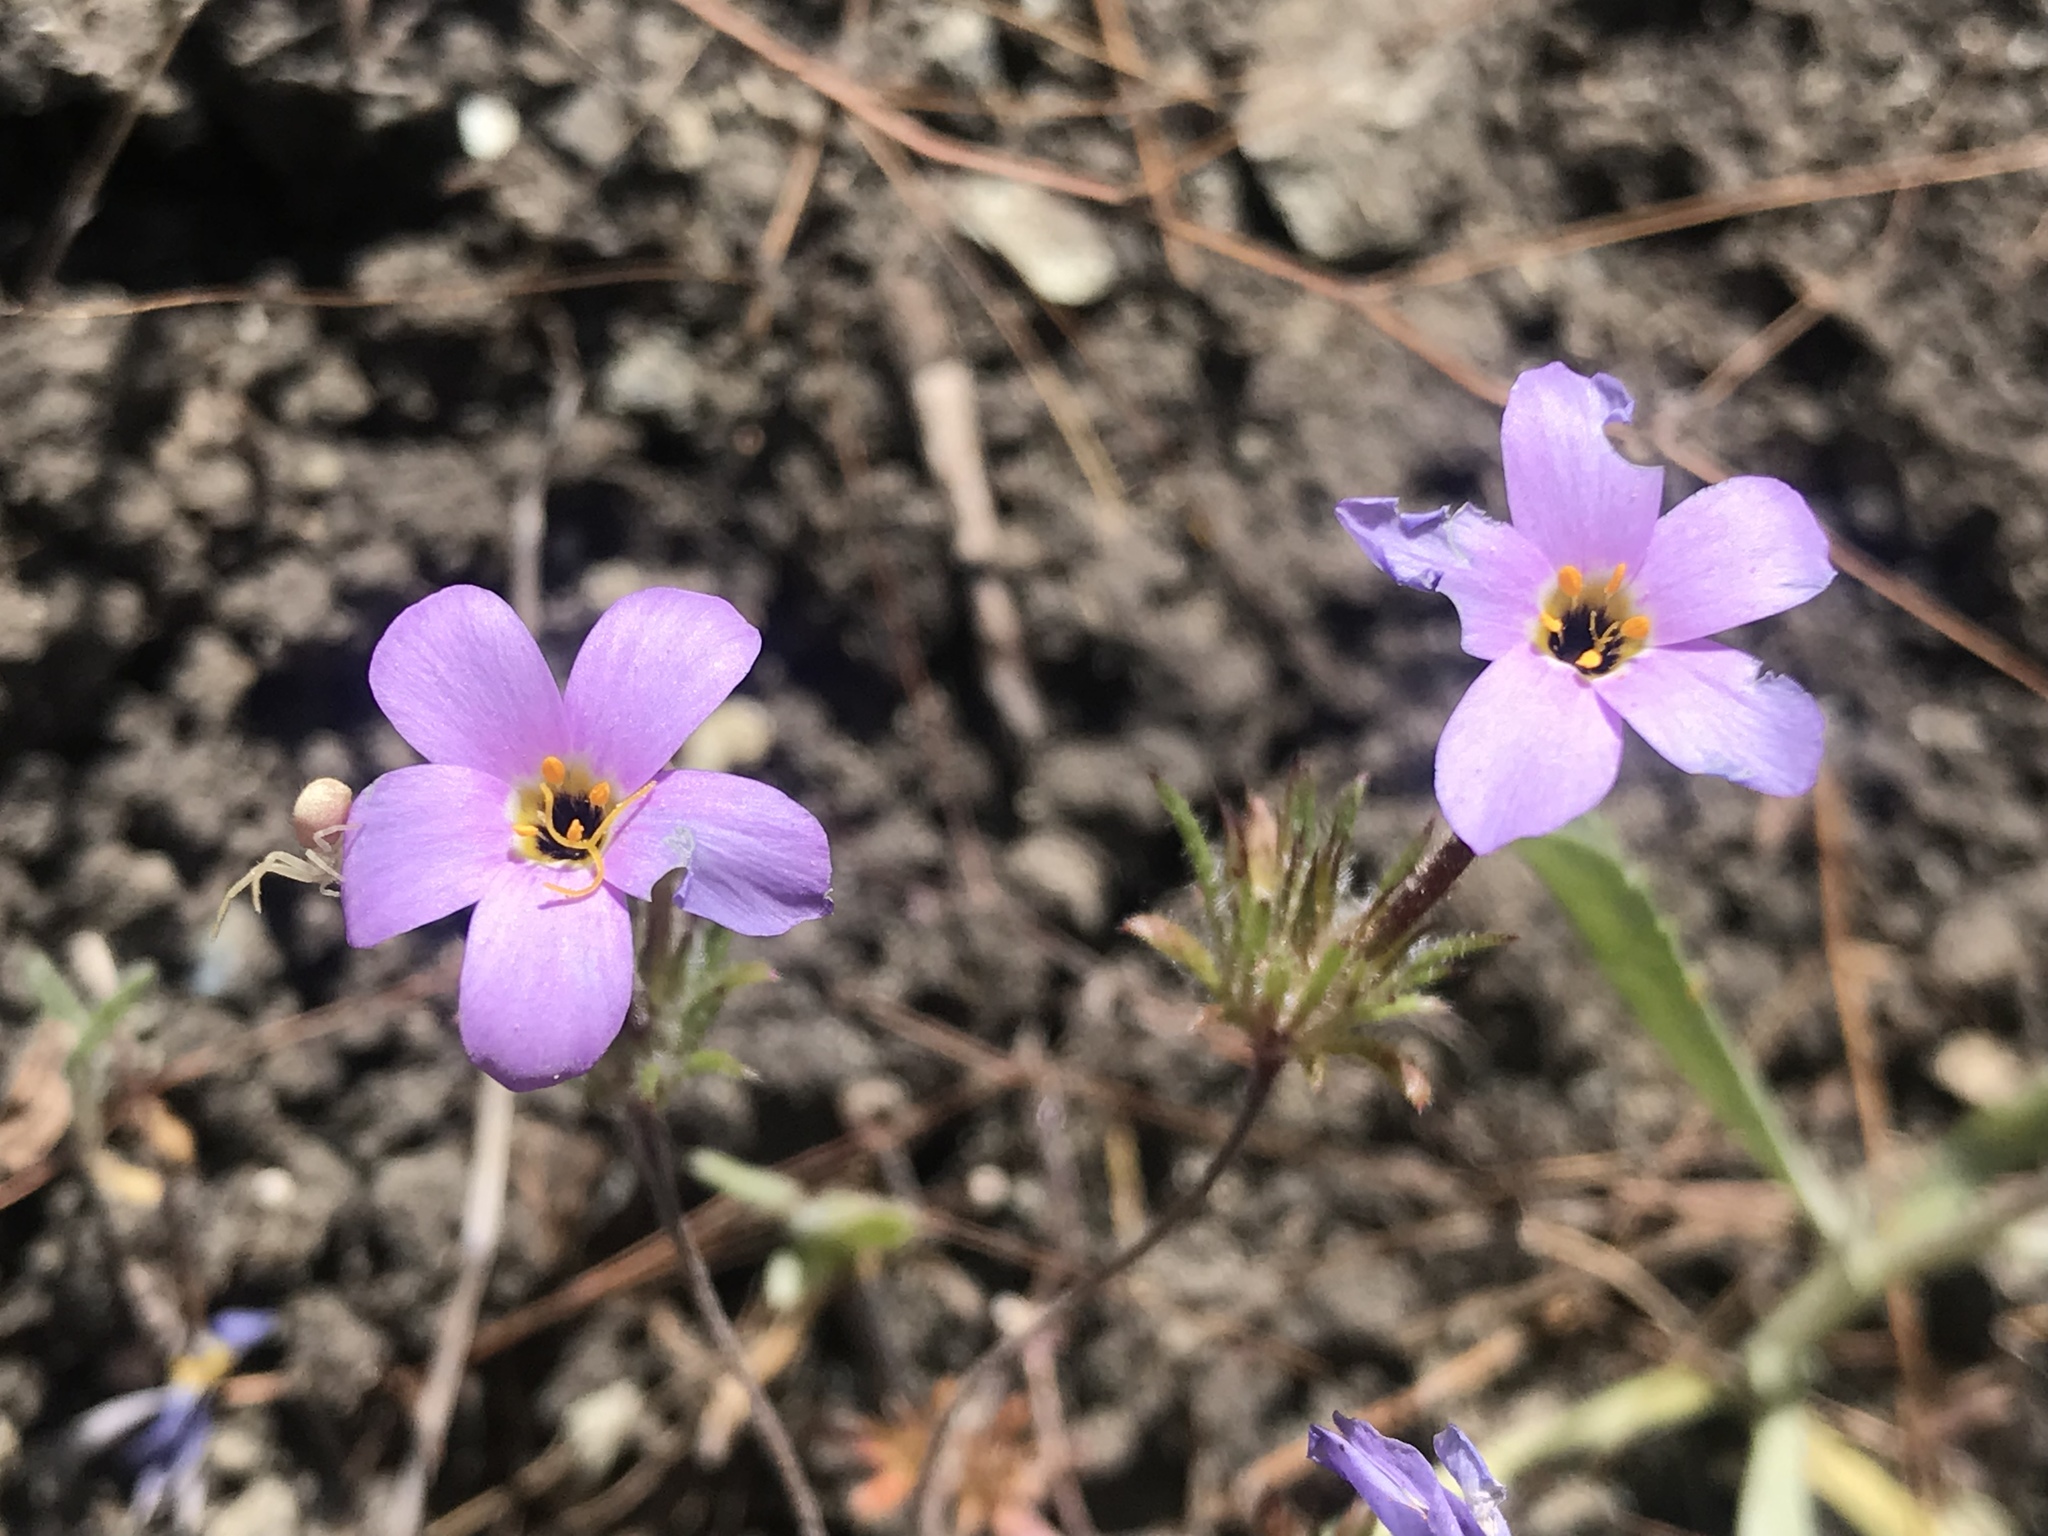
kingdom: Plantae
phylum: Tracheophyta
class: Magnoliopsida
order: Ericales
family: Polemoniaceae
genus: Leptosiphon
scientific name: Leptosiphon androsaceus
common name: False babystars
